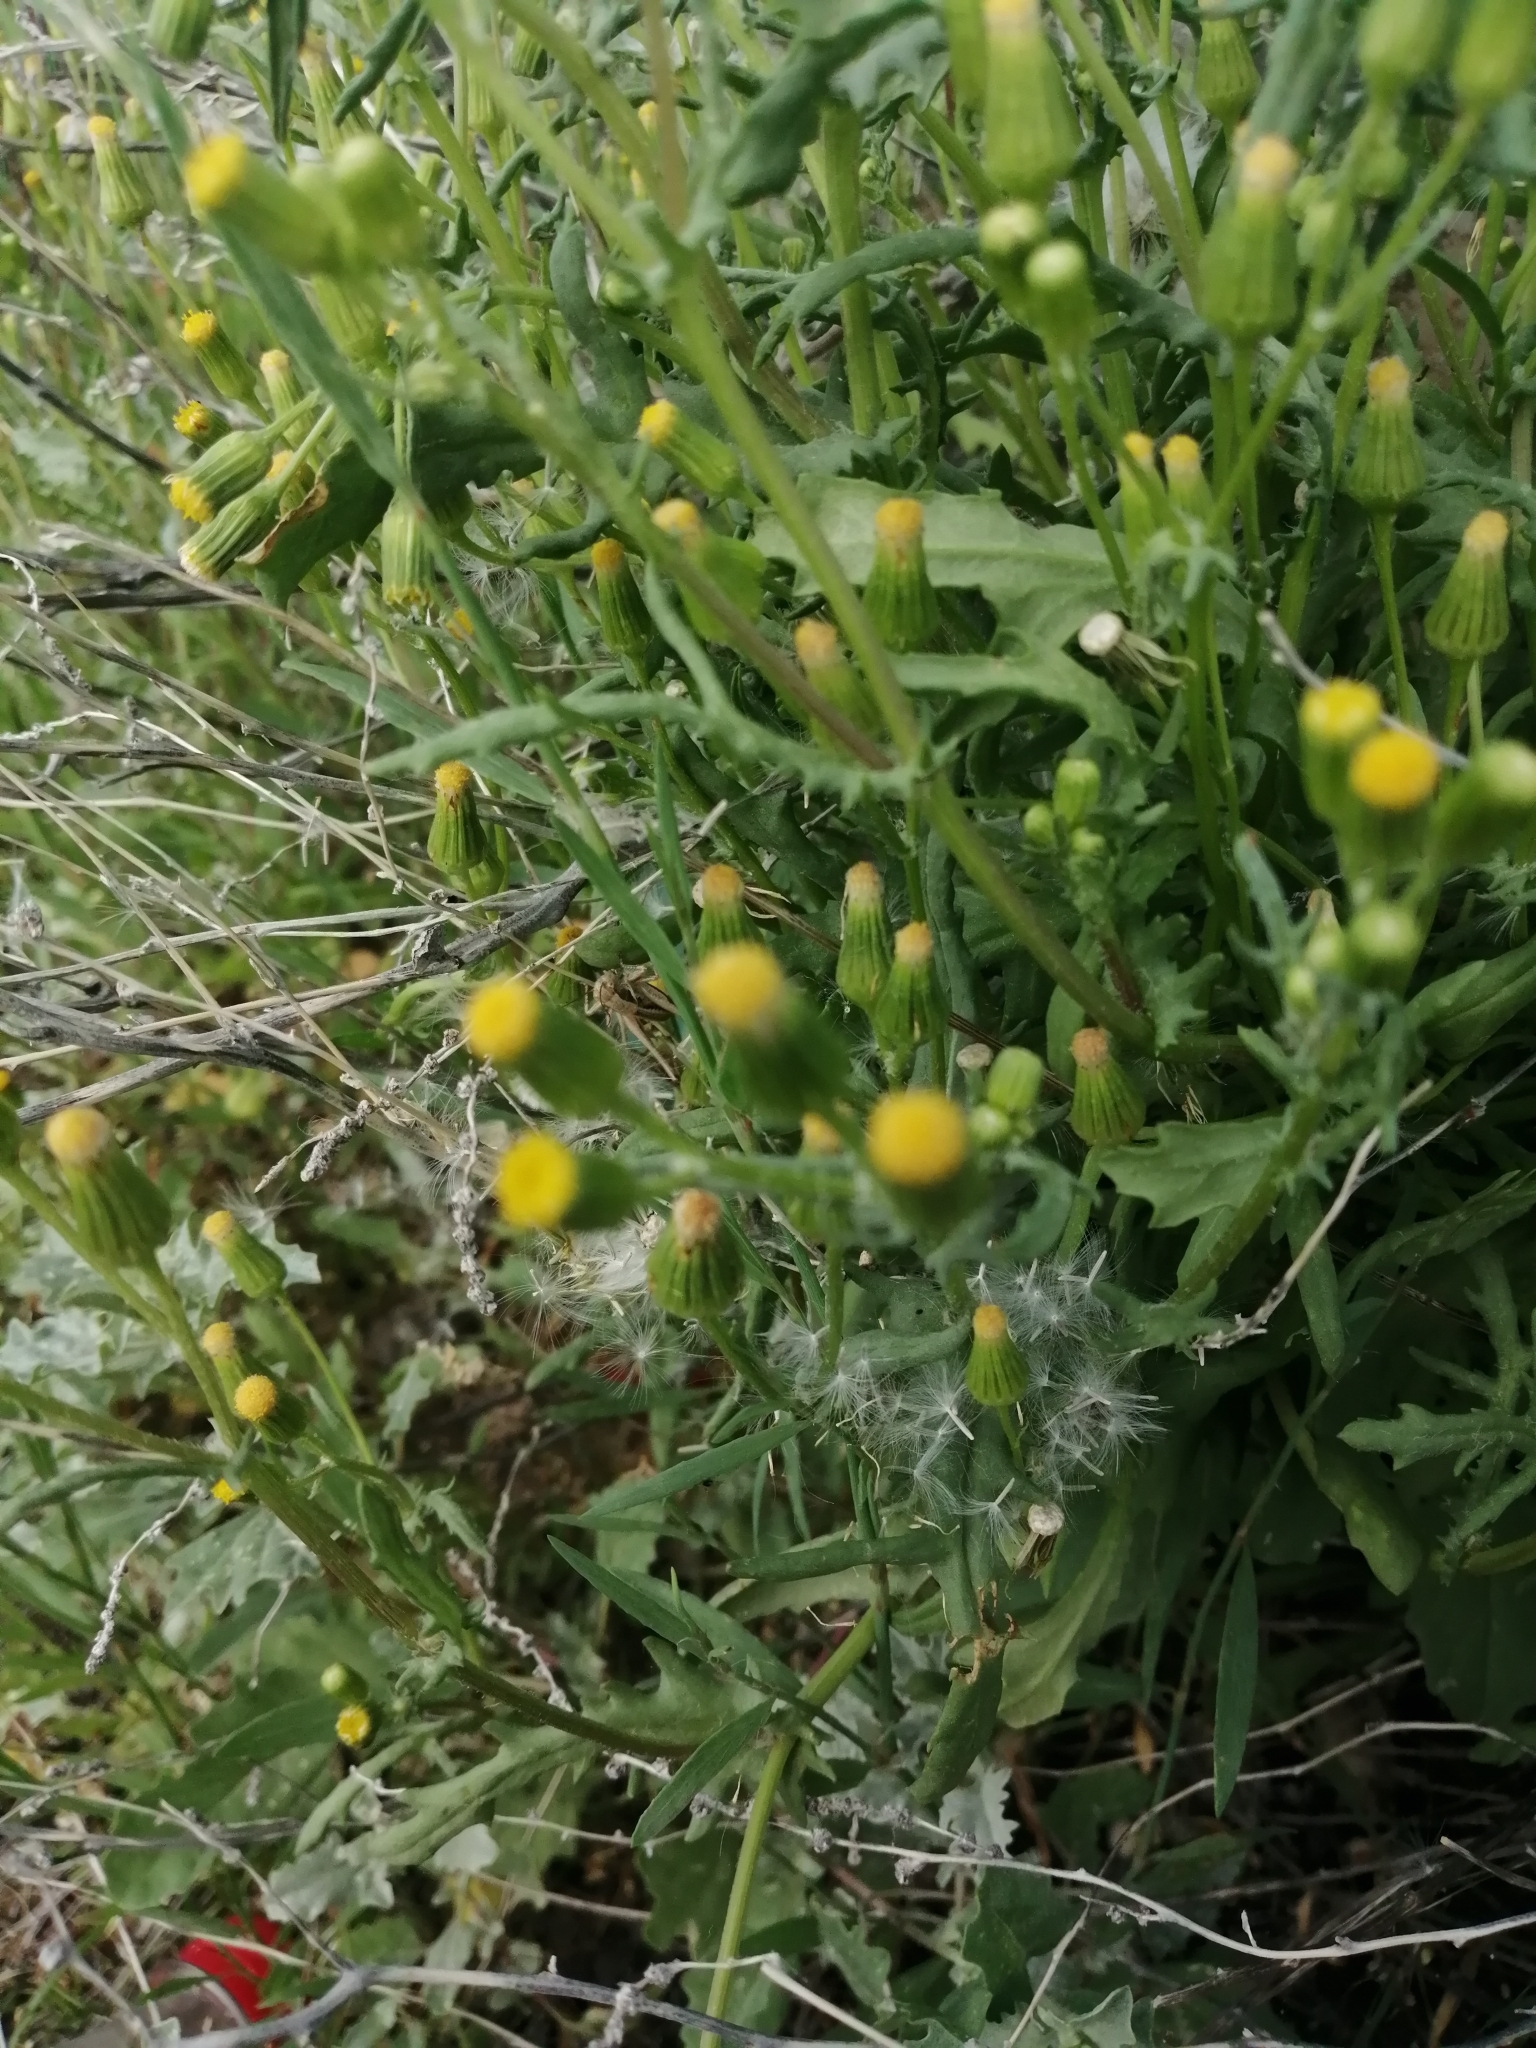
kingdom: Plantae
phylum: Tracheophyta
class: Magnoliopsida
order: Asterales
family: Asteraceae
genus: Senecio
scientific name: Senecio dubitabilis
